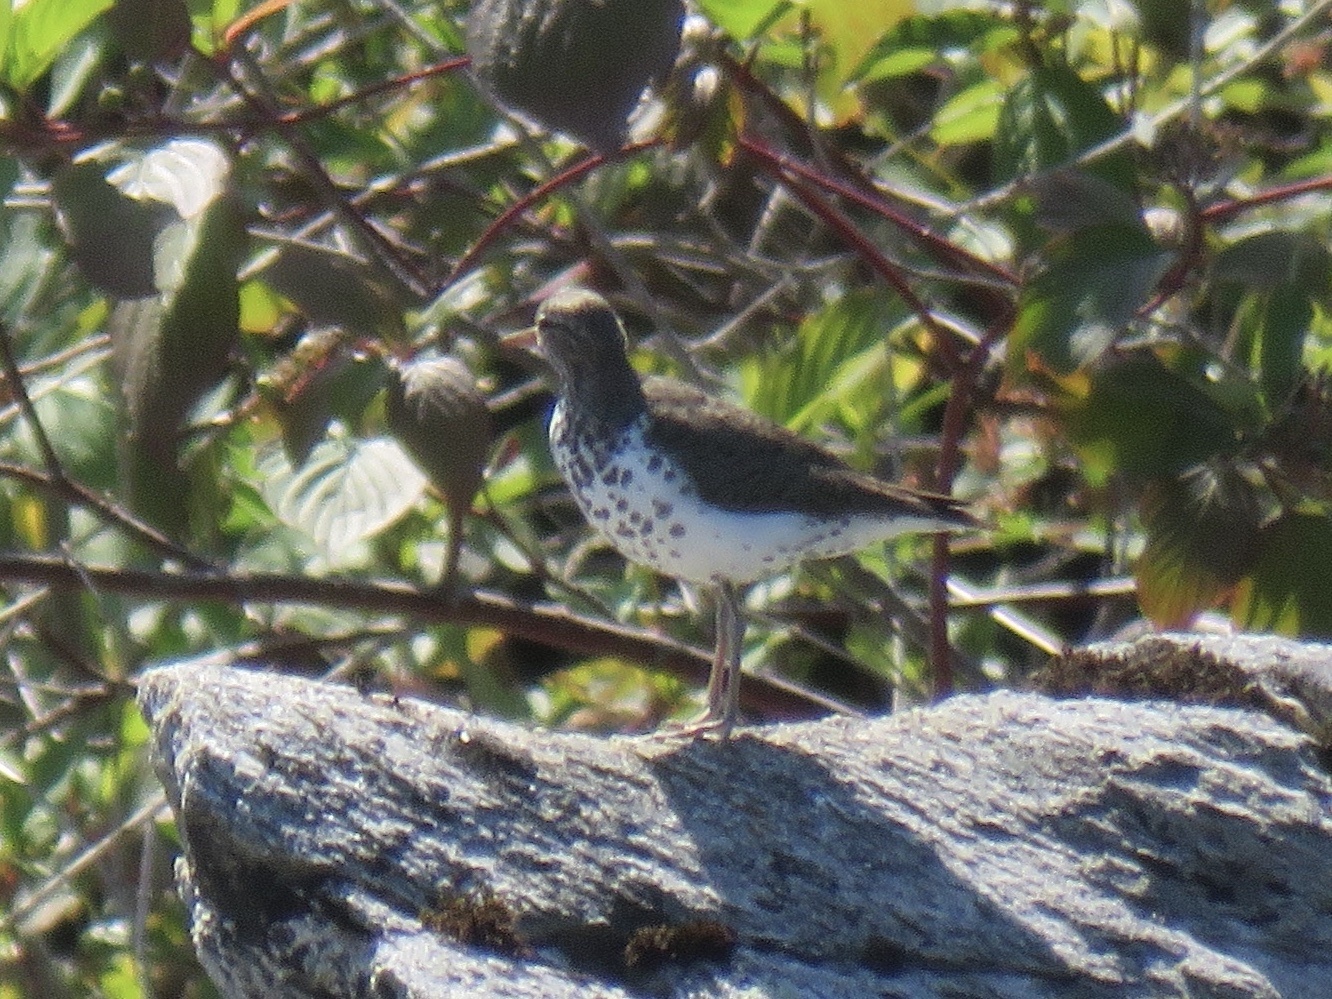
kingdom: Animalia
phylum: Chordata
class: Aves
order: Charadriiformes
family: Scolopacidae
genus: Actitis
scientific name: Actitis macularius
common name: Spotted sandpiper
